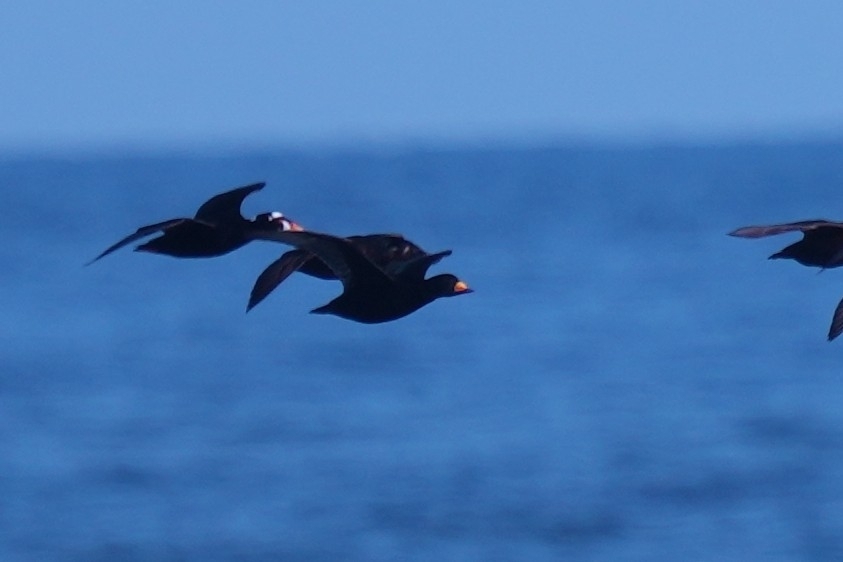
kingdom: Animalia
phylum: Chordata
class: Aves
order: Anseriformes
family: Anatidae
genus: Melanitta
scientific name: Melanitta perspicillata
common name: Surf scoter
